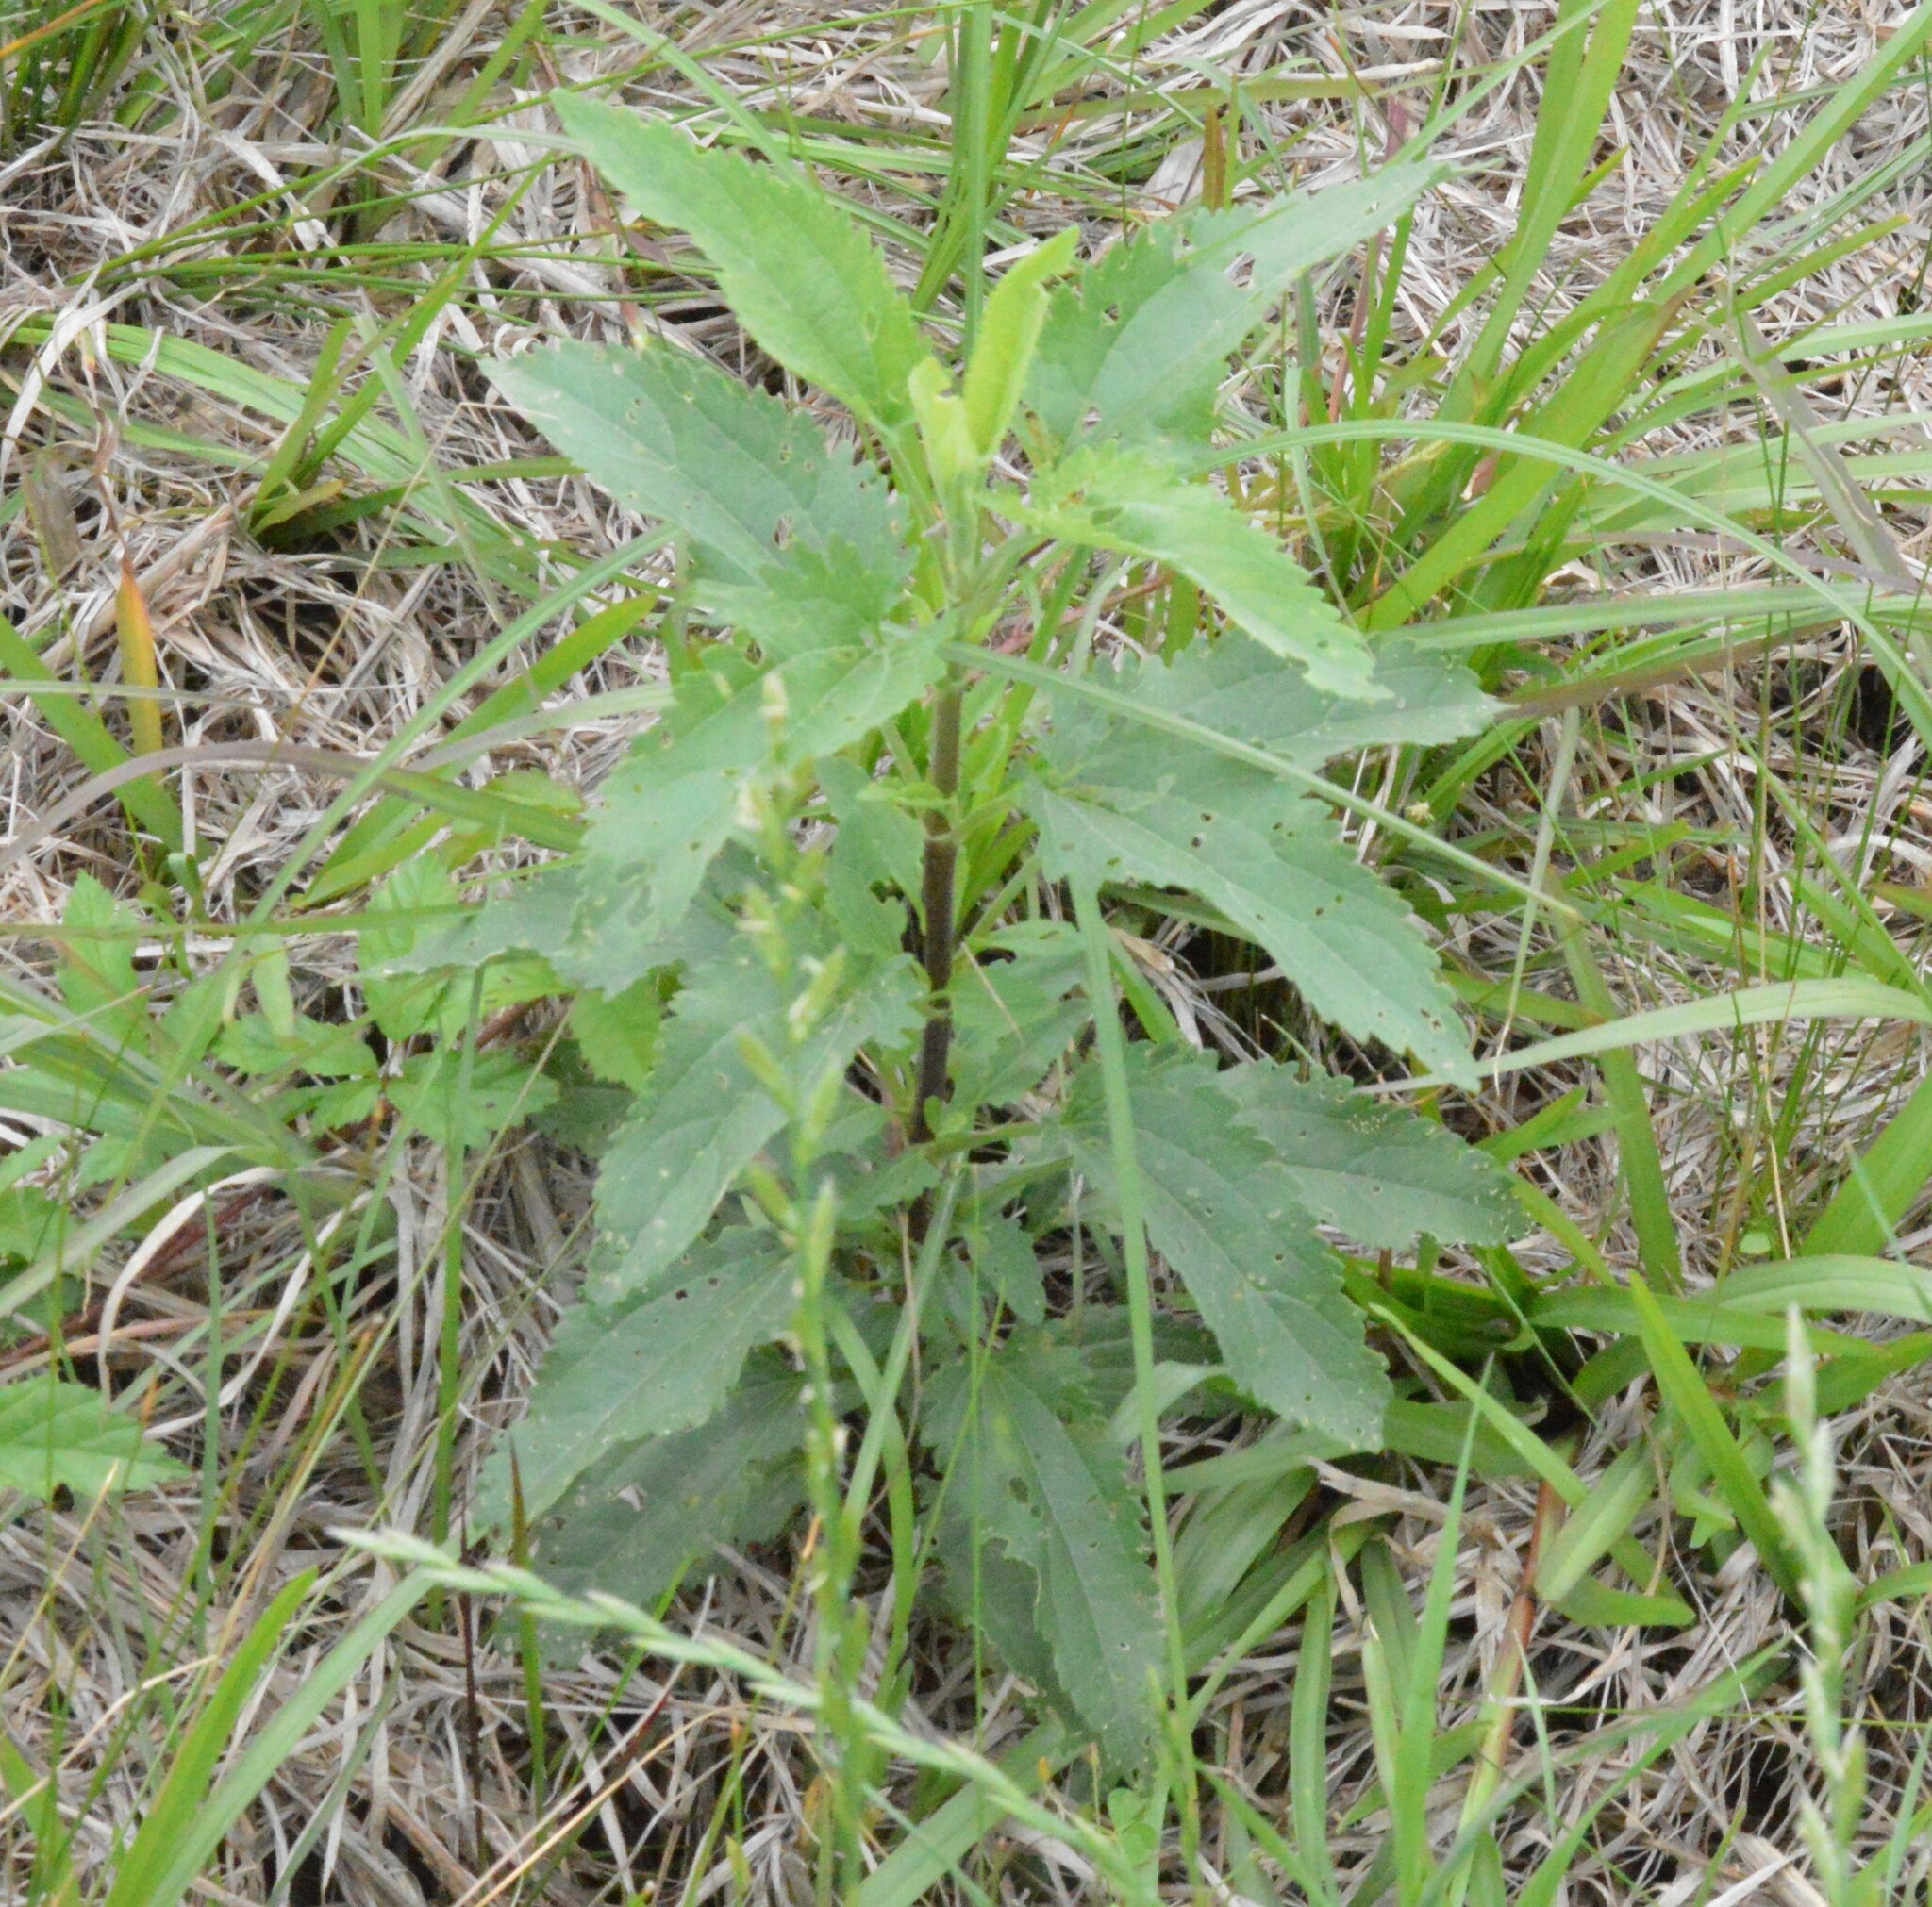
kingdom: Plantae
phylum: Tracheophyta
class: Magnoliopsida
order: Asterales
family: Asteraceae
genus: Eupatorium
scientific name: Eupatorium serotinum
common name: Late boneset
